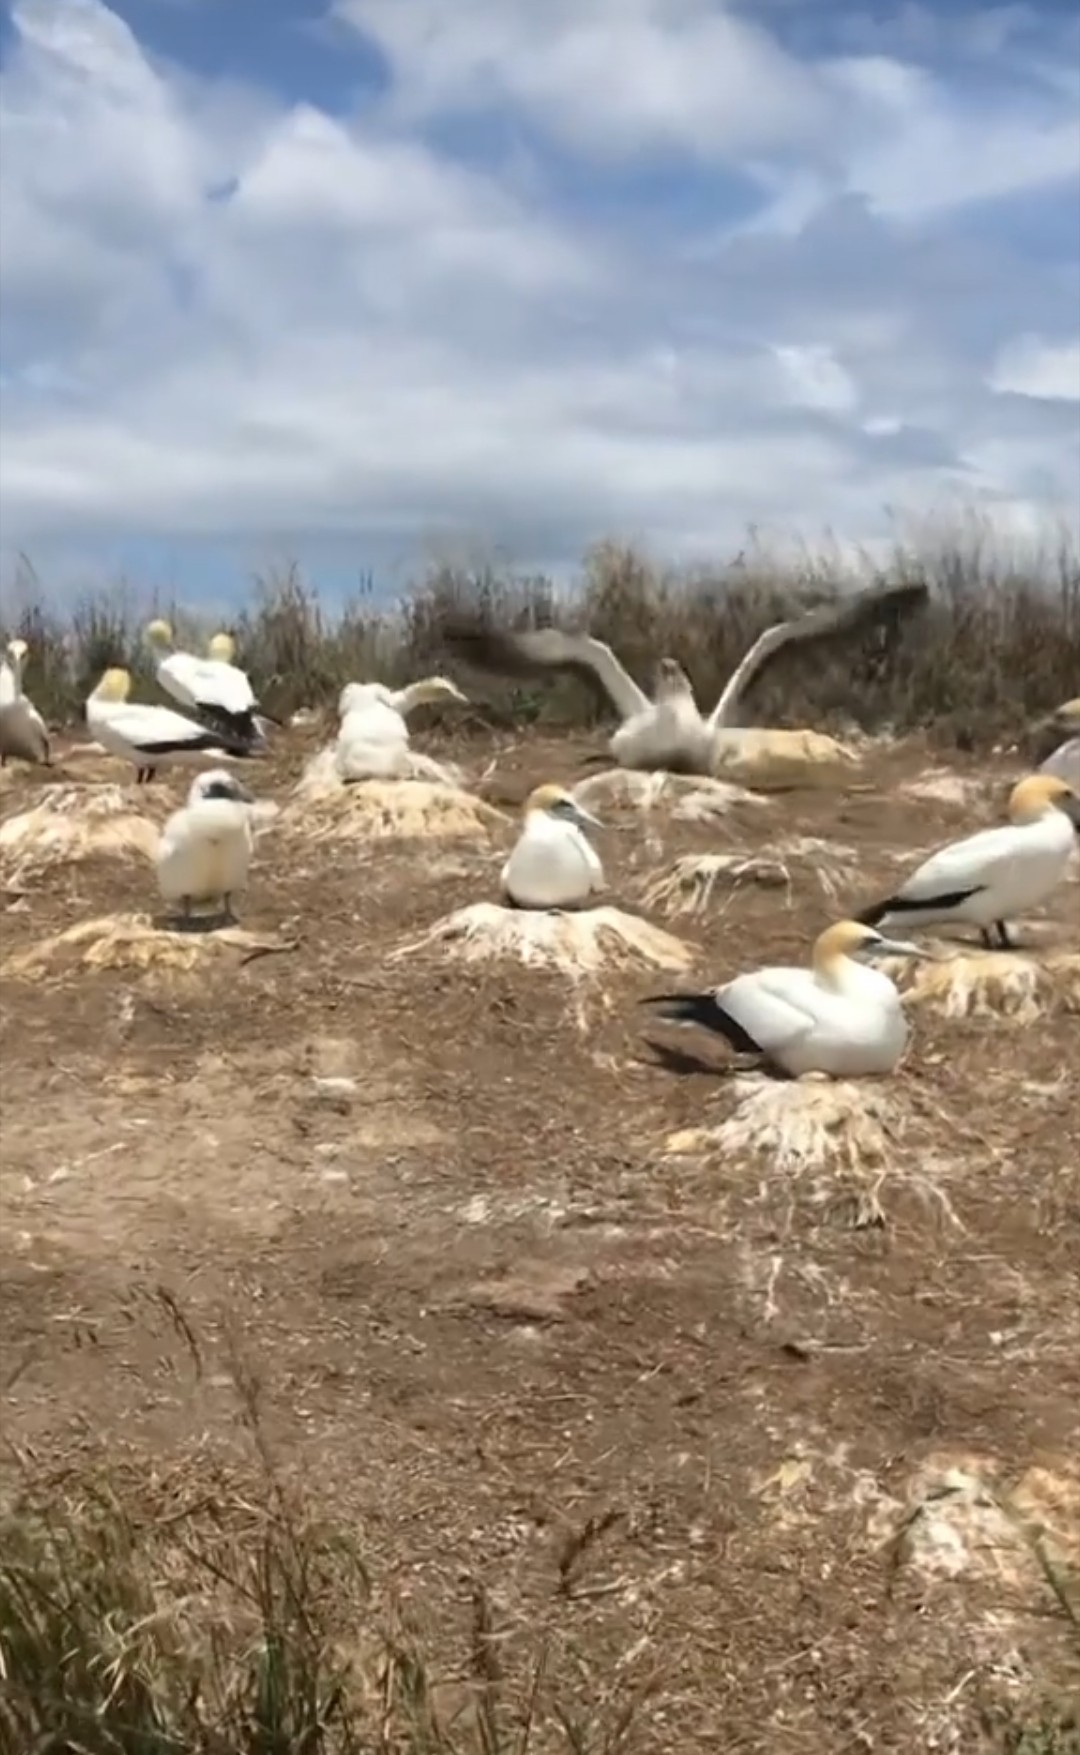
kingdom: Animalia
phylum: Chordata
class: Aves
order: Suliformes
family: Sulidae
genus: Morus
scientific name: Morus serrator
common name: Australasian gannet
